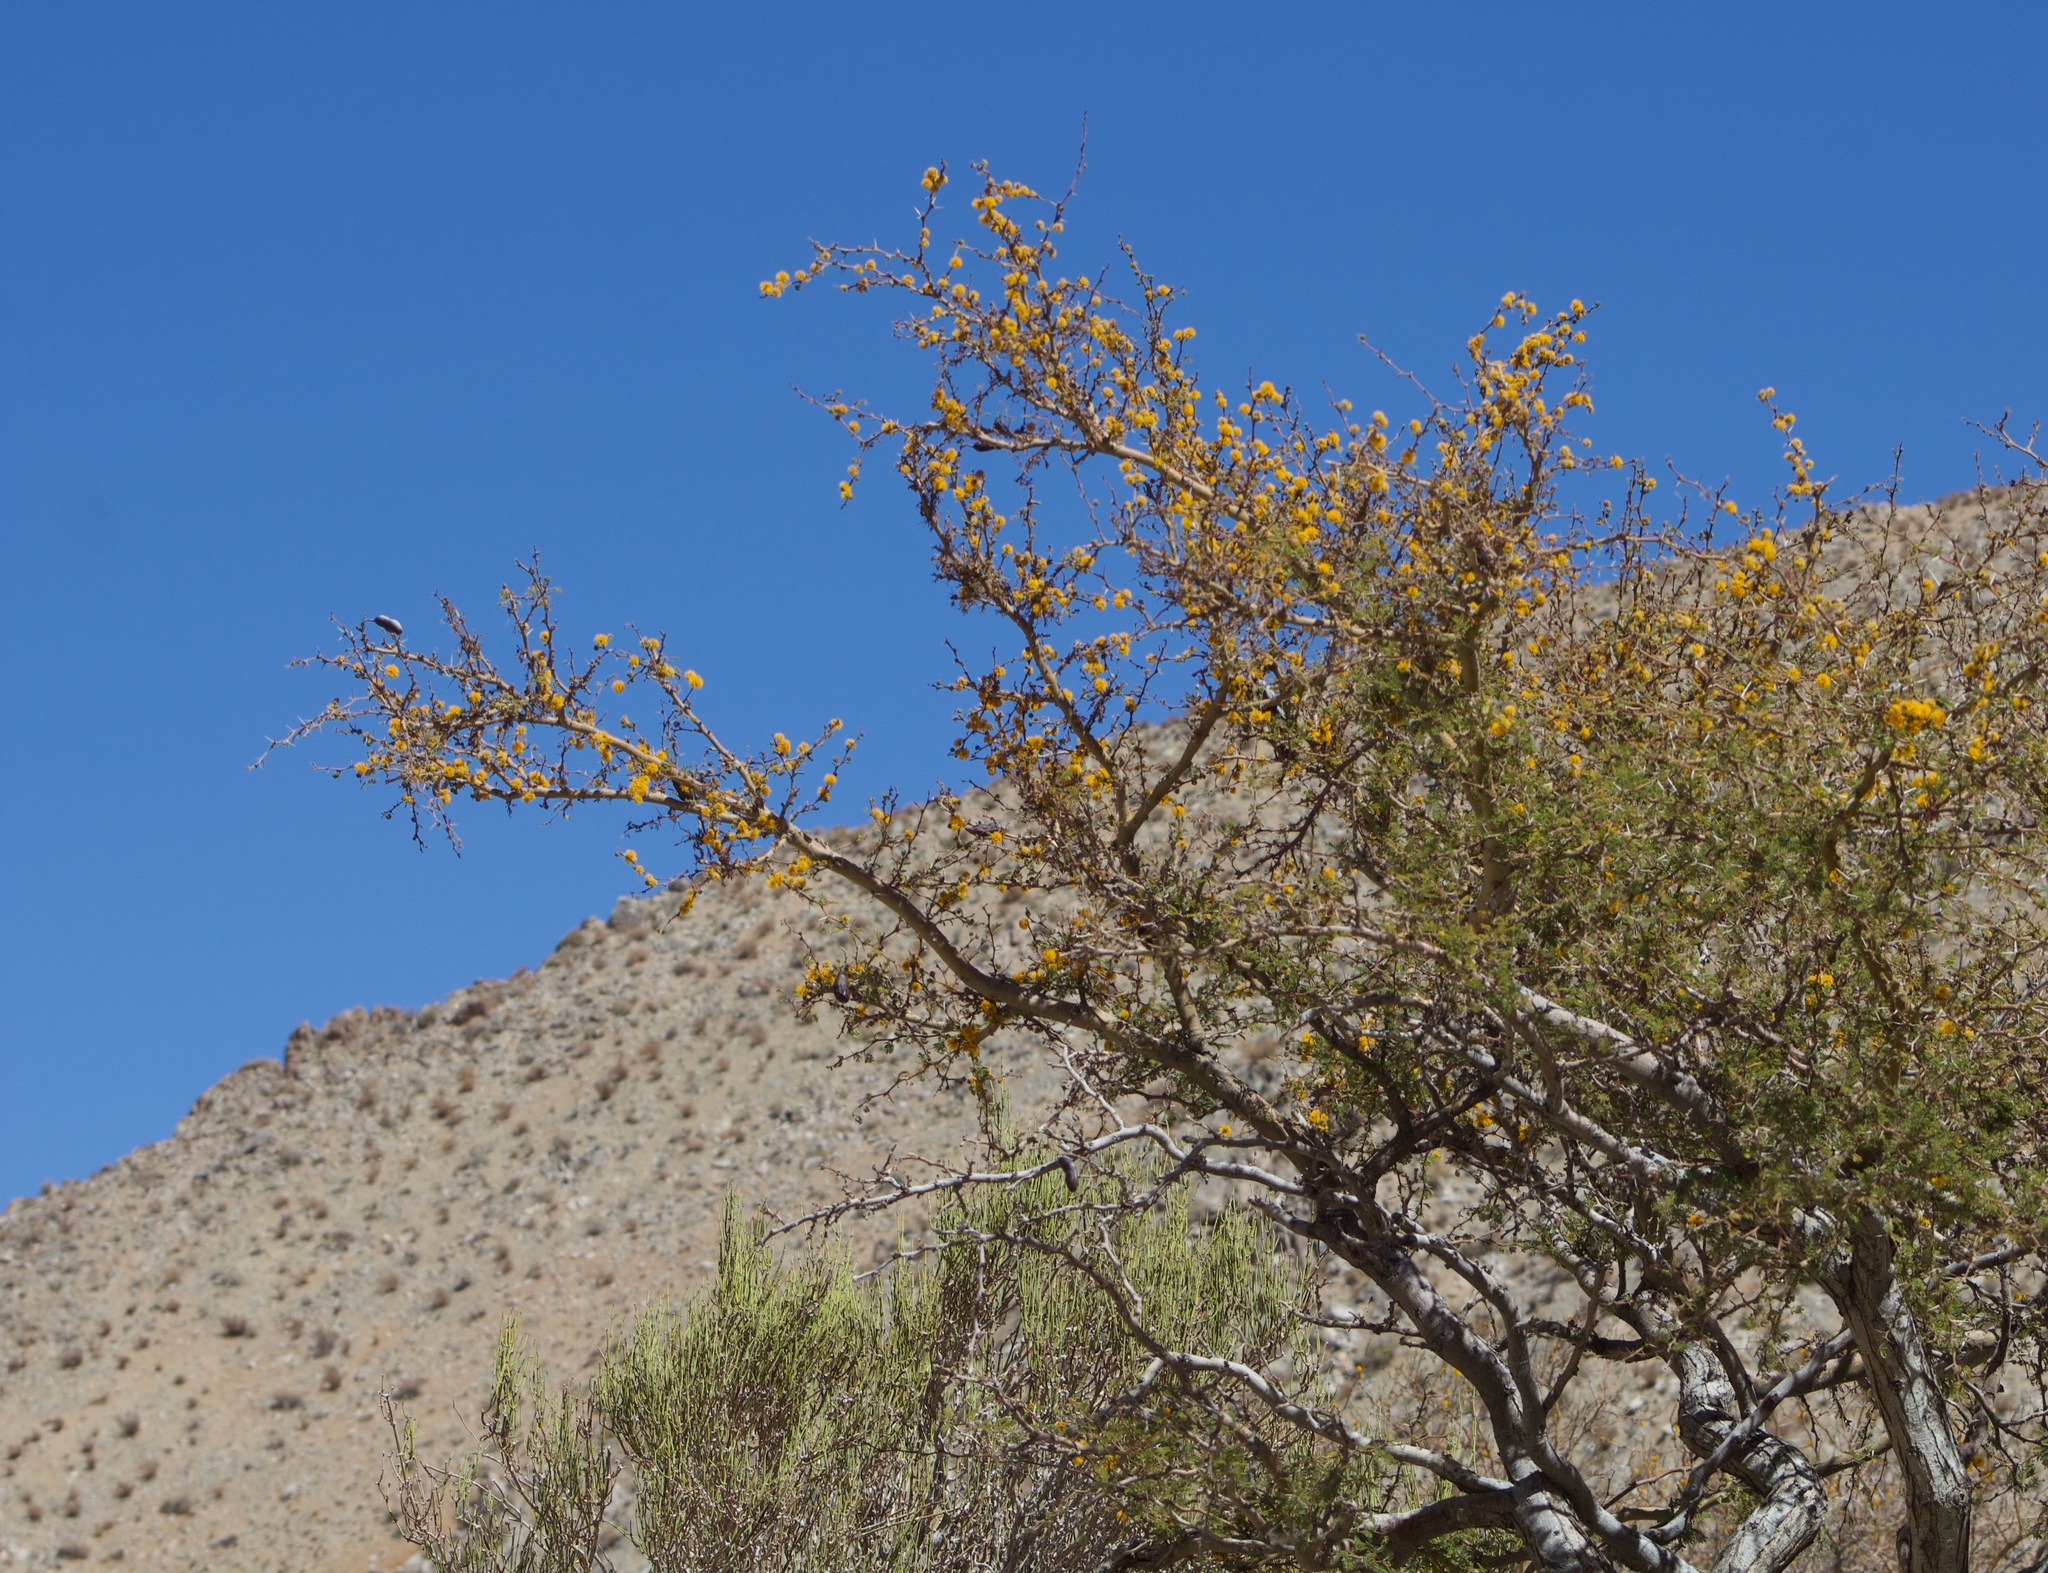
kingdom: Plantae
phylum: Tracheophyta
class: Magnoliopsida
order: Fabales
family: Fabaceae
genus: Vachellia
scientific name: Vachellia caven
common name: Roman cassie
